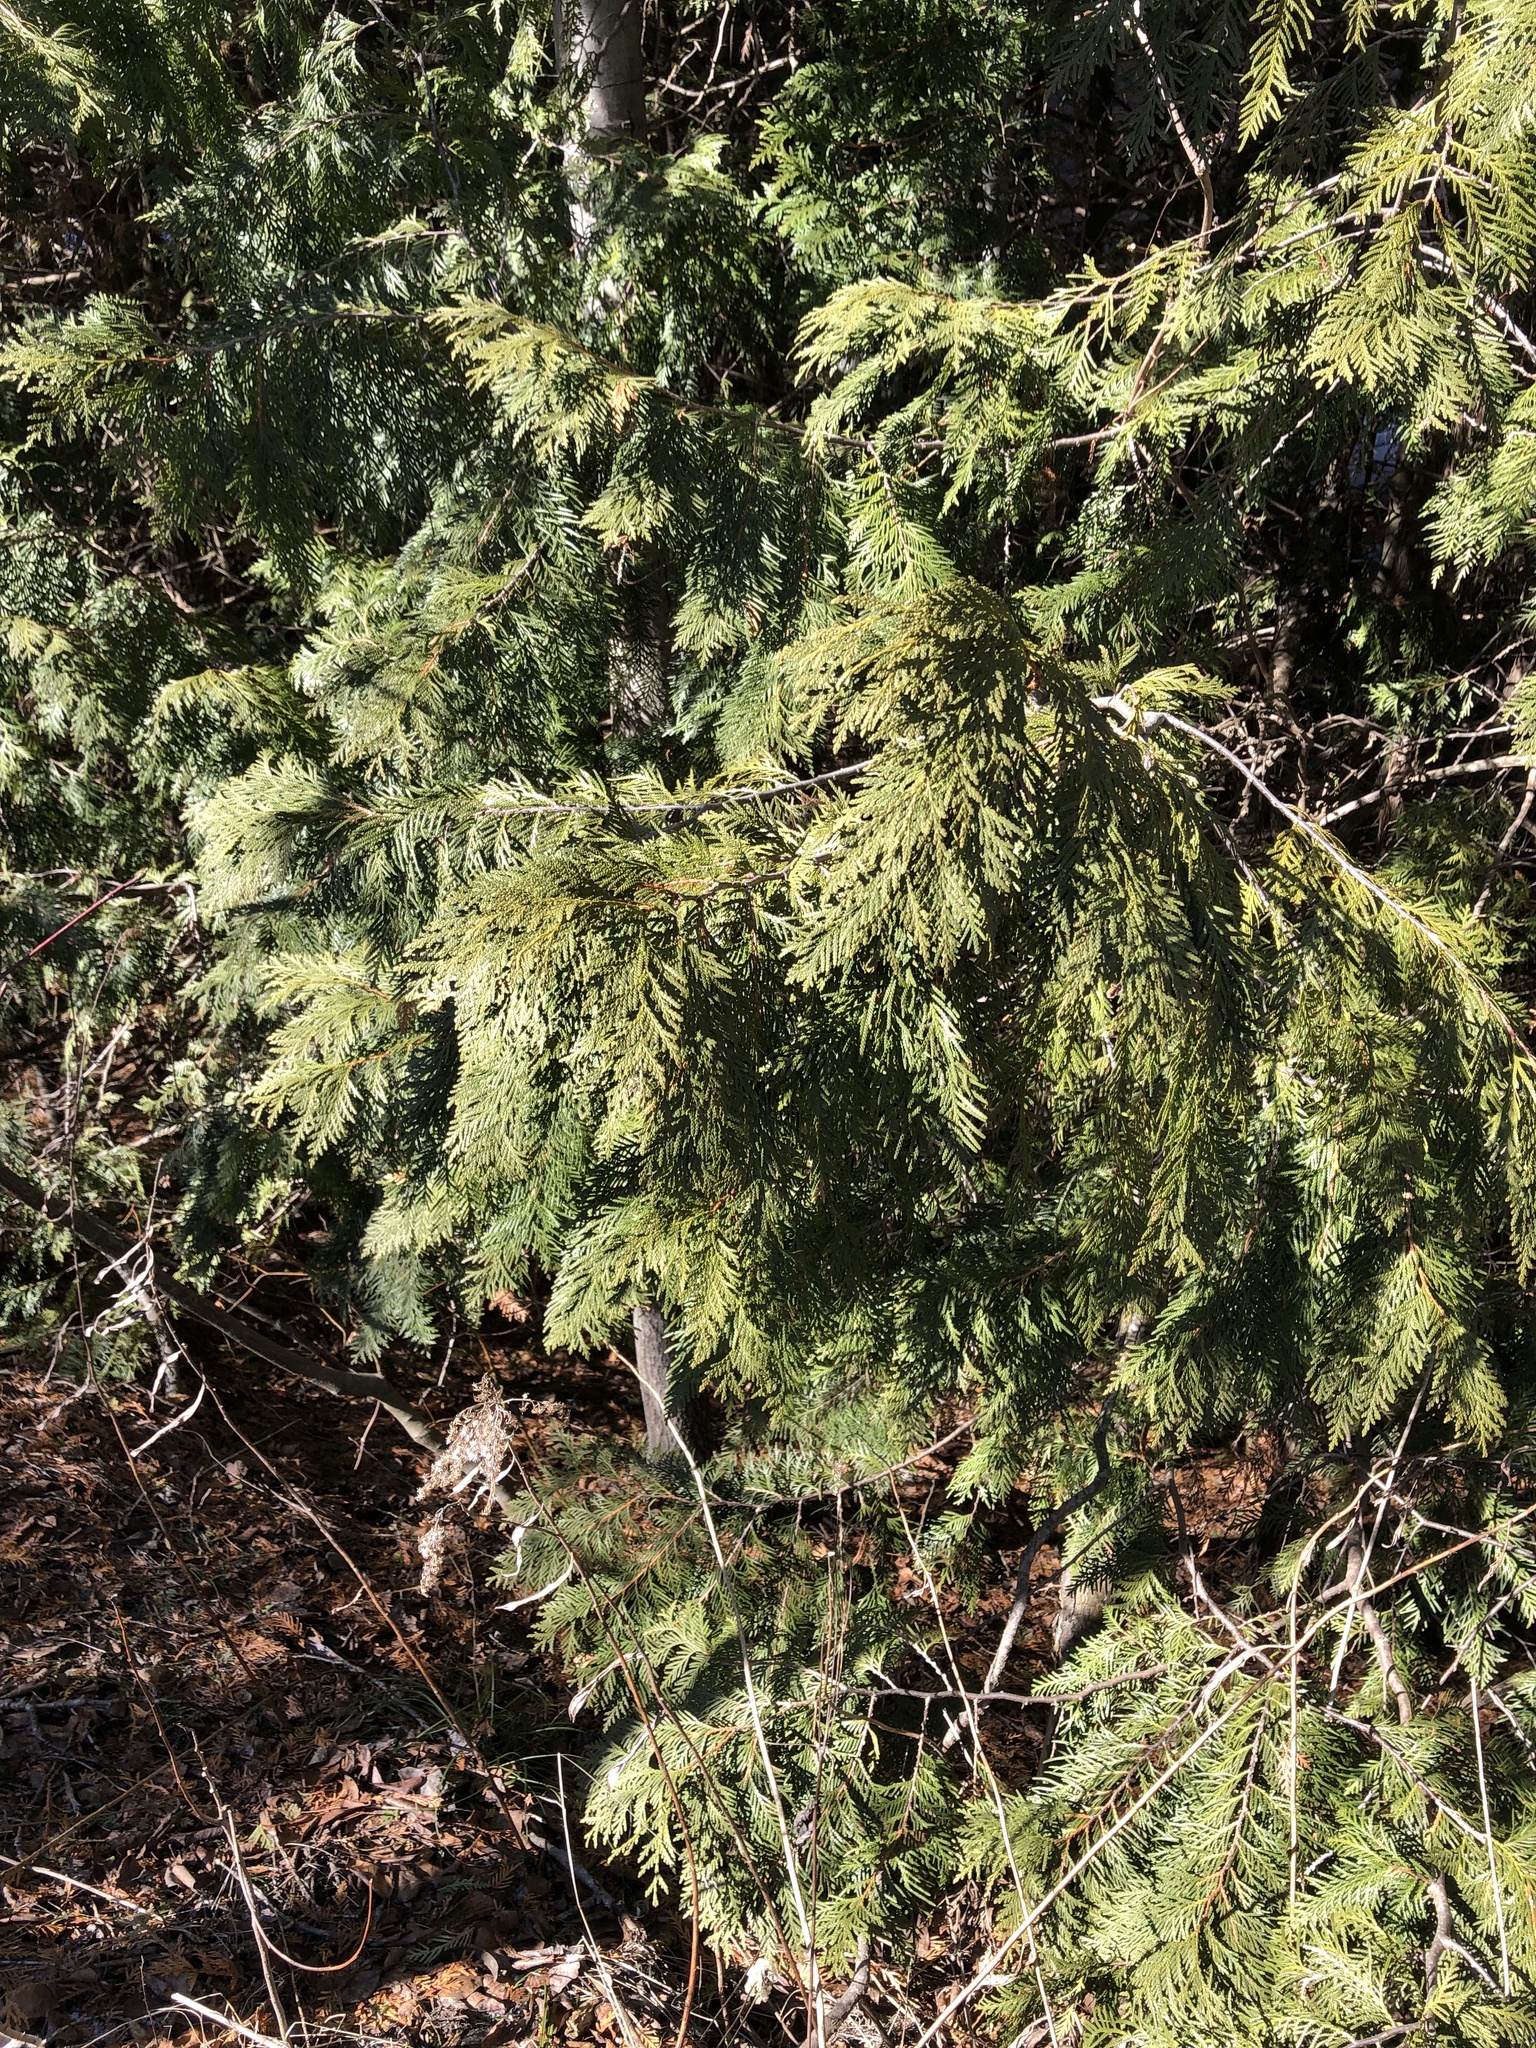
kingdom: Plantae
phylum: Tracheophyta
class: Pinopsida
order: Pinales
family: Cupressaceae
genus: Thuja
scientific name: Thuja occidentalis
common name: Northern white-cedar
